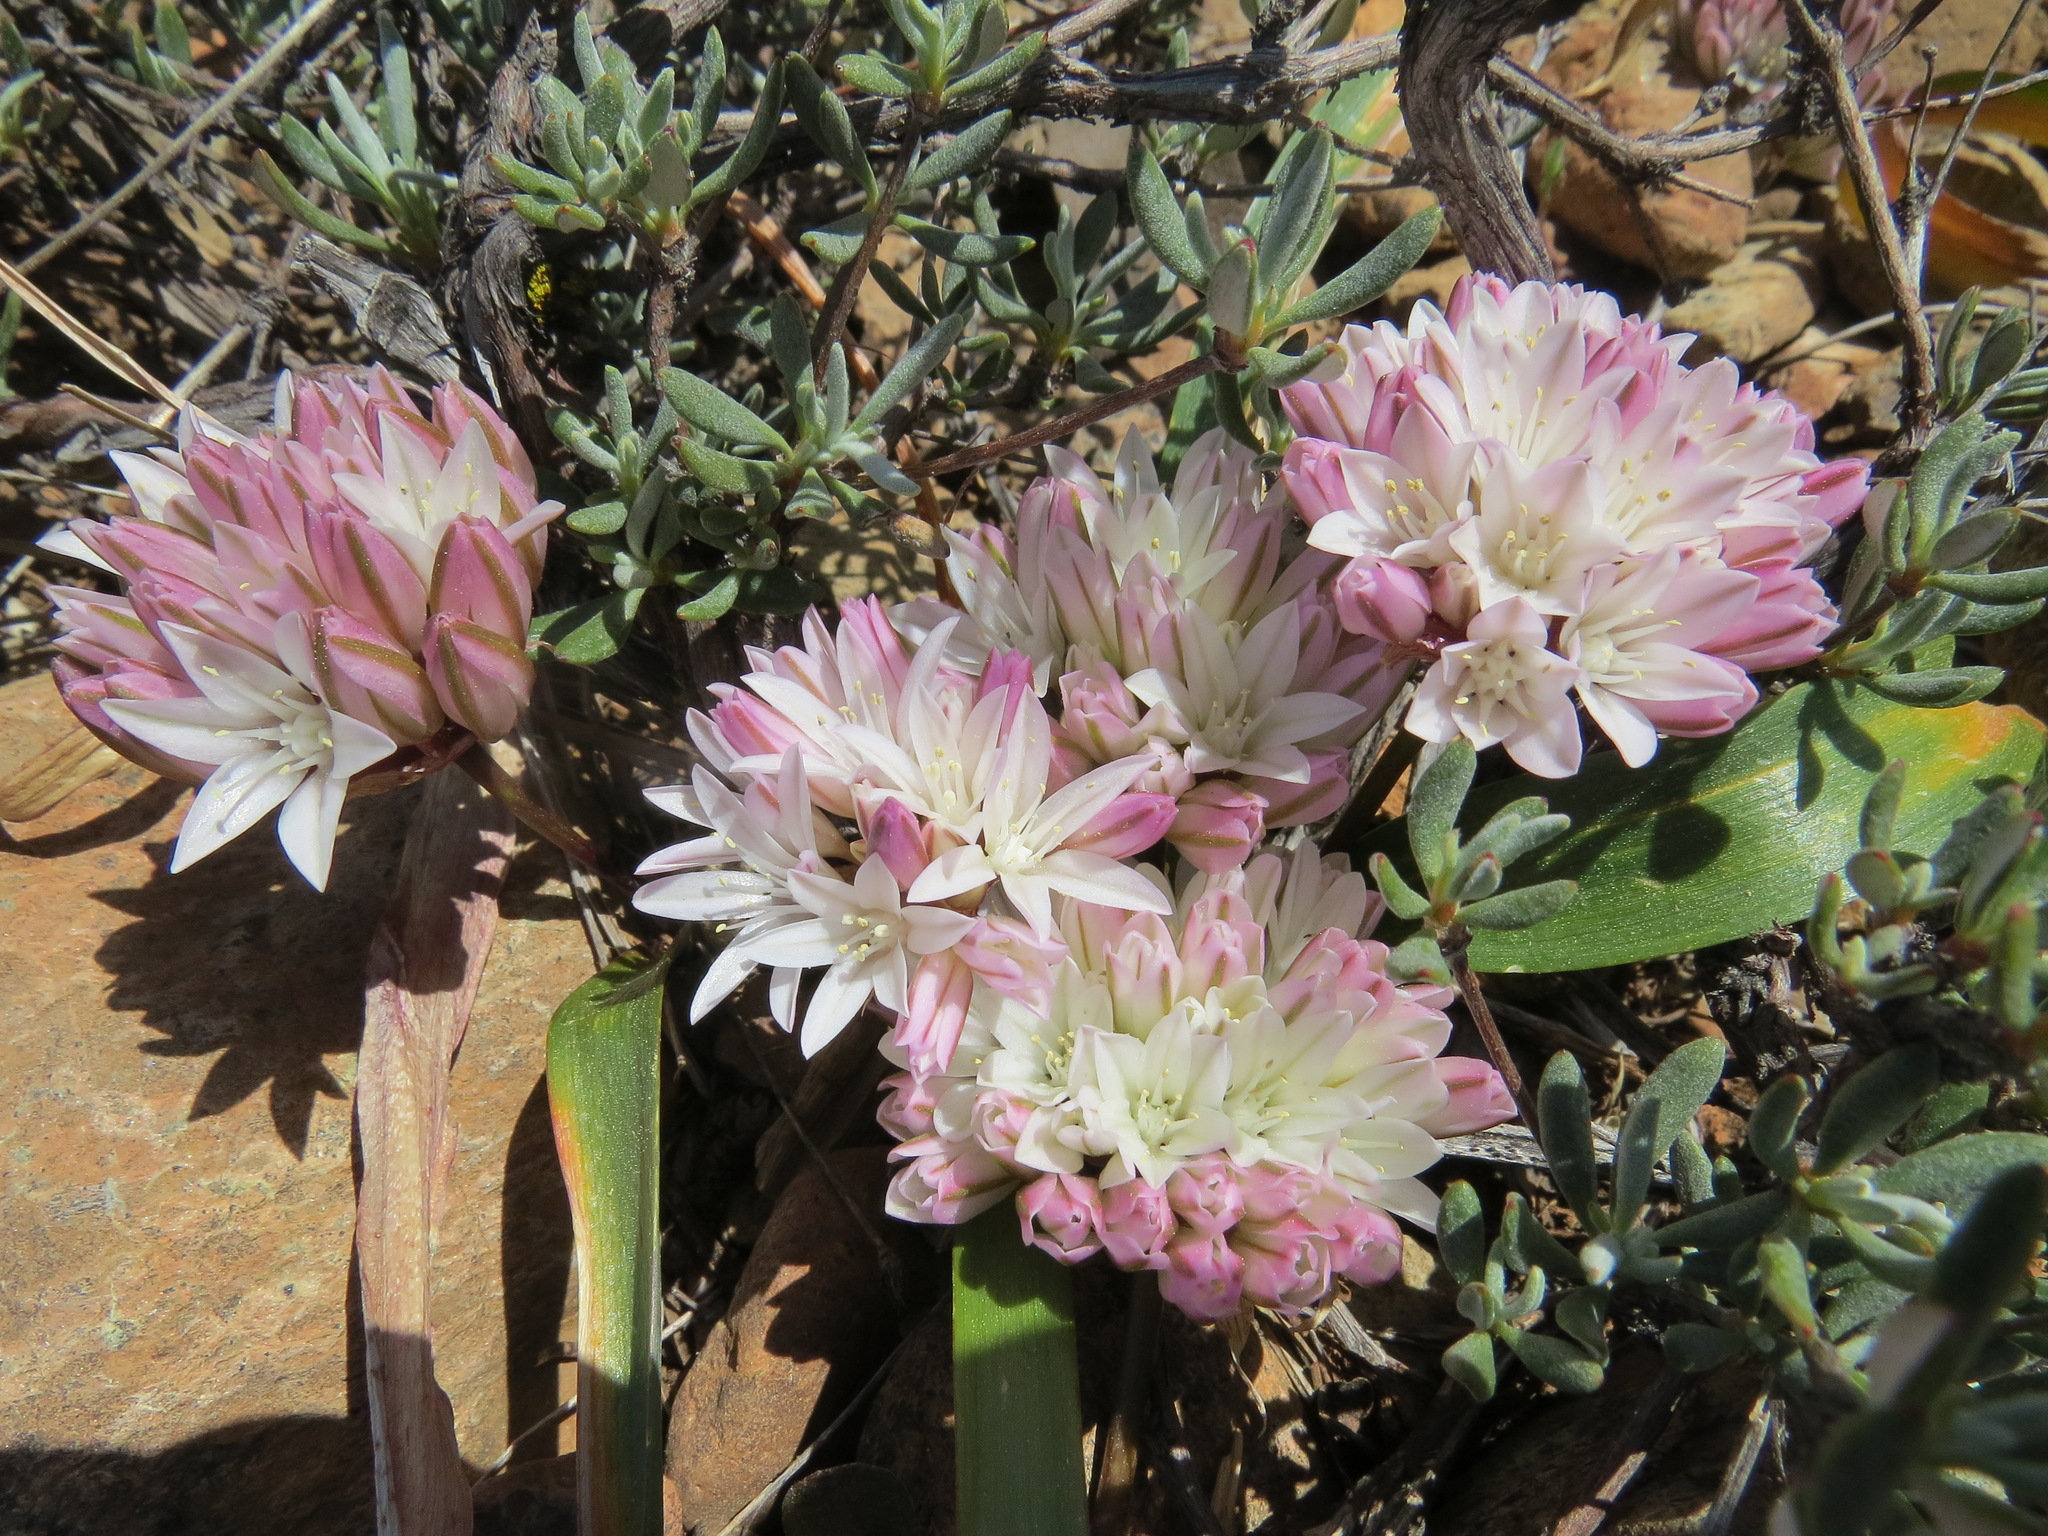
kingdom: Plantae
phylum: Tracheophyta
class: Liliopsida
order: Asparagales
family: Amaryllidaceae
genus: Allium
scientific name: Allium cratericola
